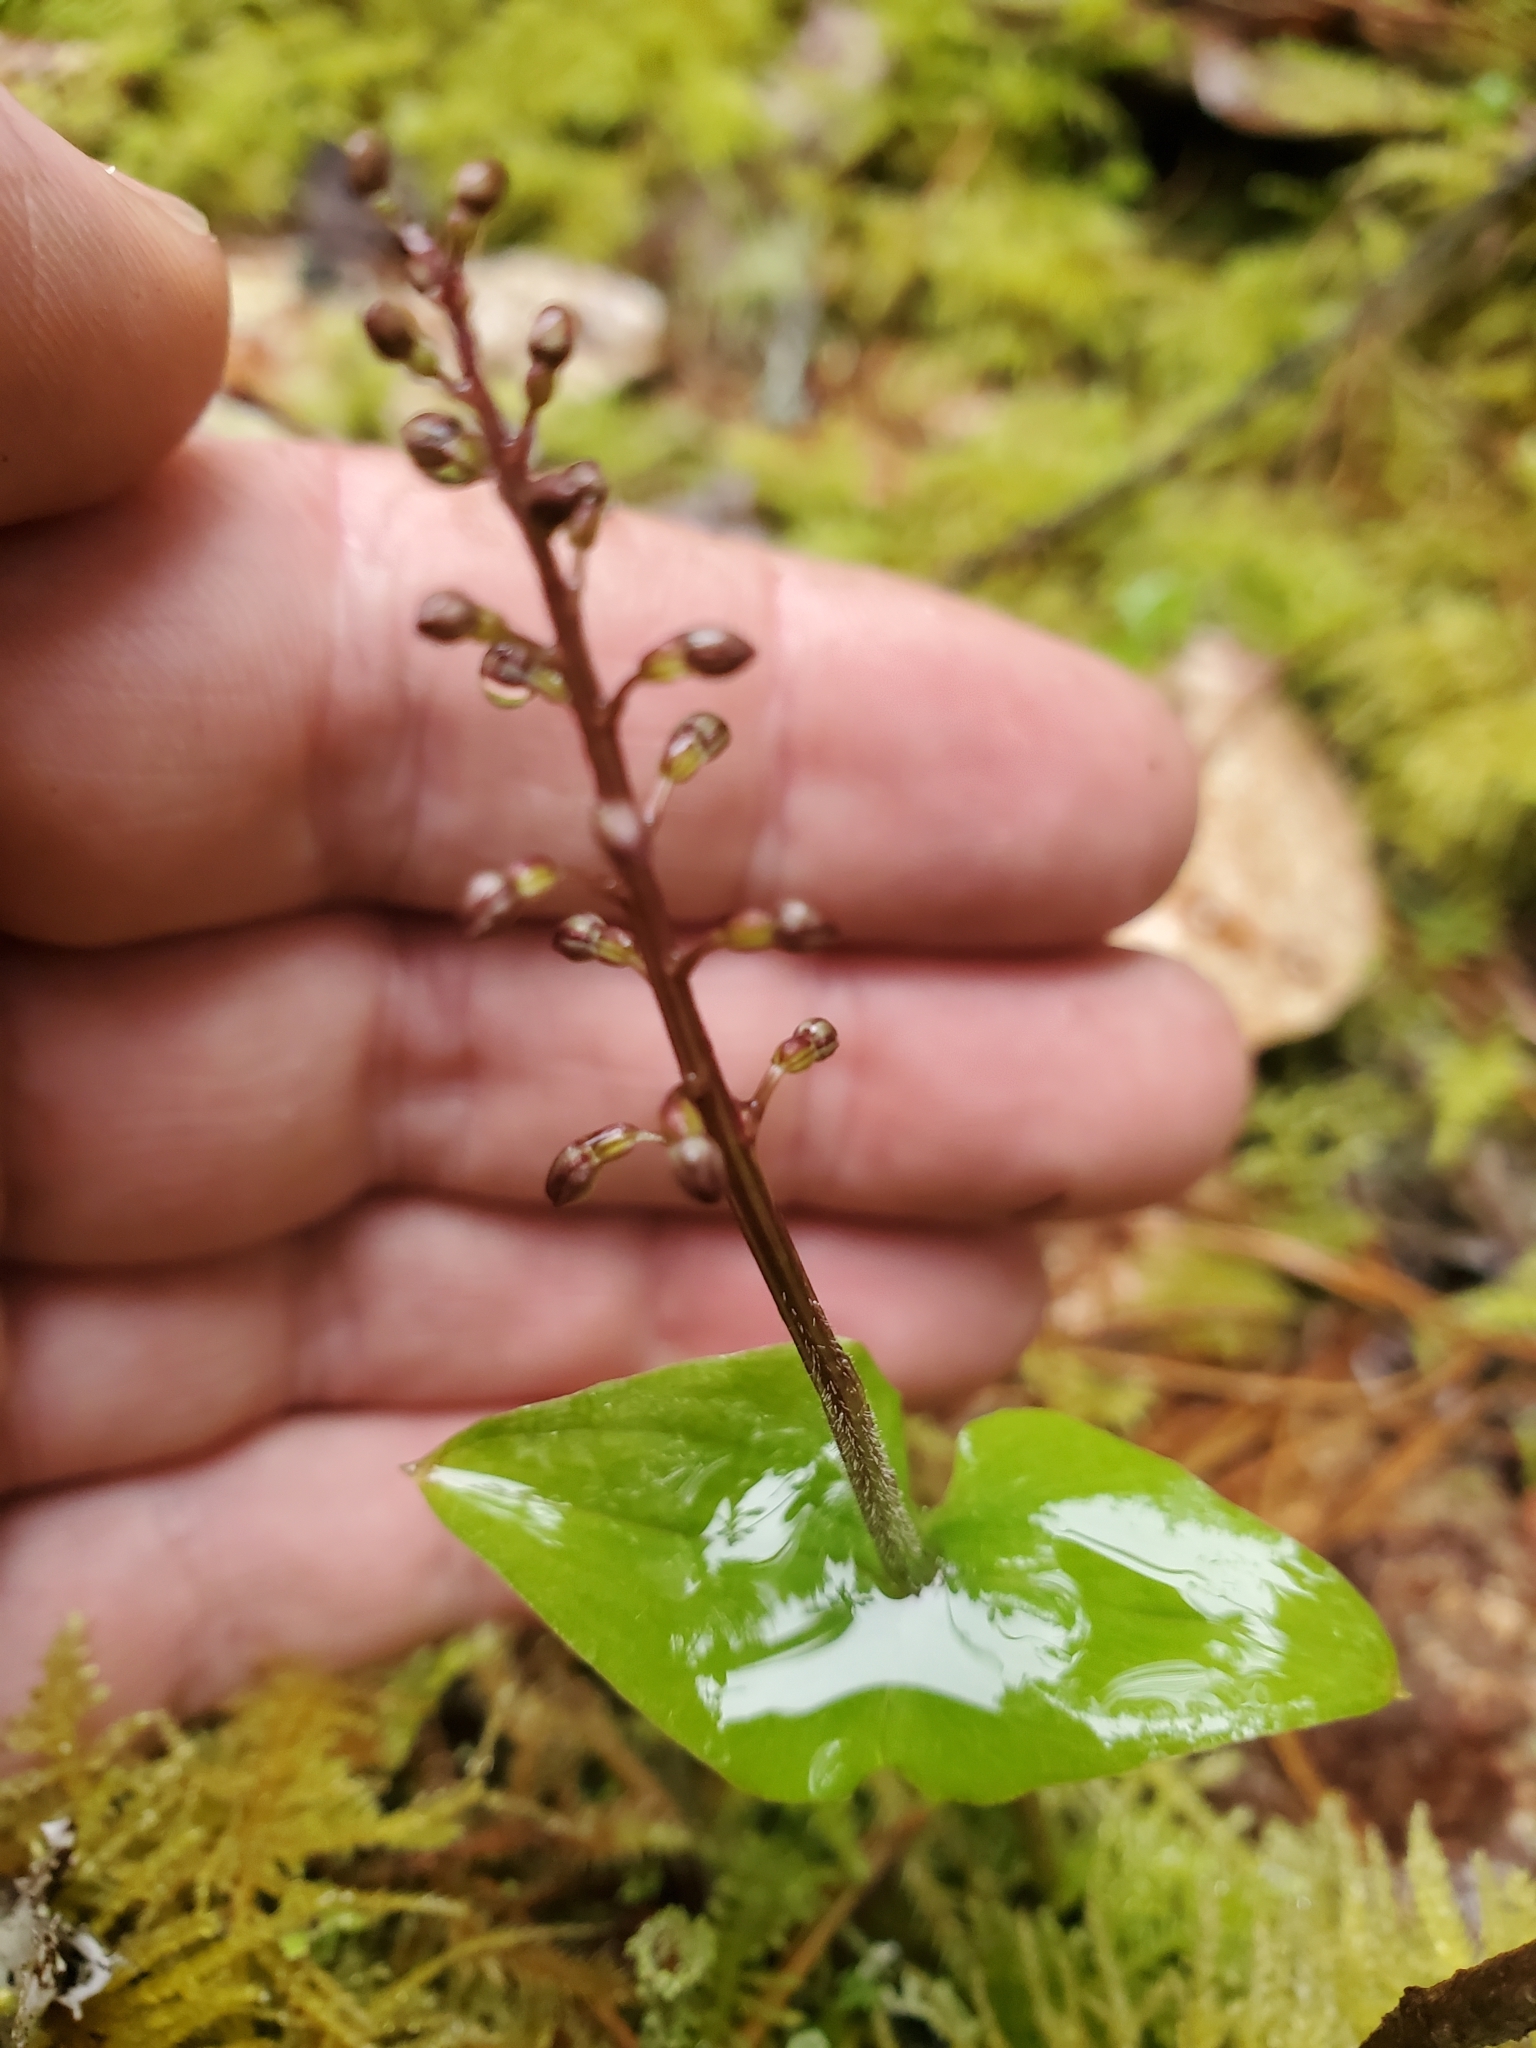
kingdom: Plantae
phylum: Tracheophyta
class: Liliopsida
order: Asparagales
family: Orchidaceae
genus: Neottia
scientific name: Neottia cordata
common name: Lesser twayblade
